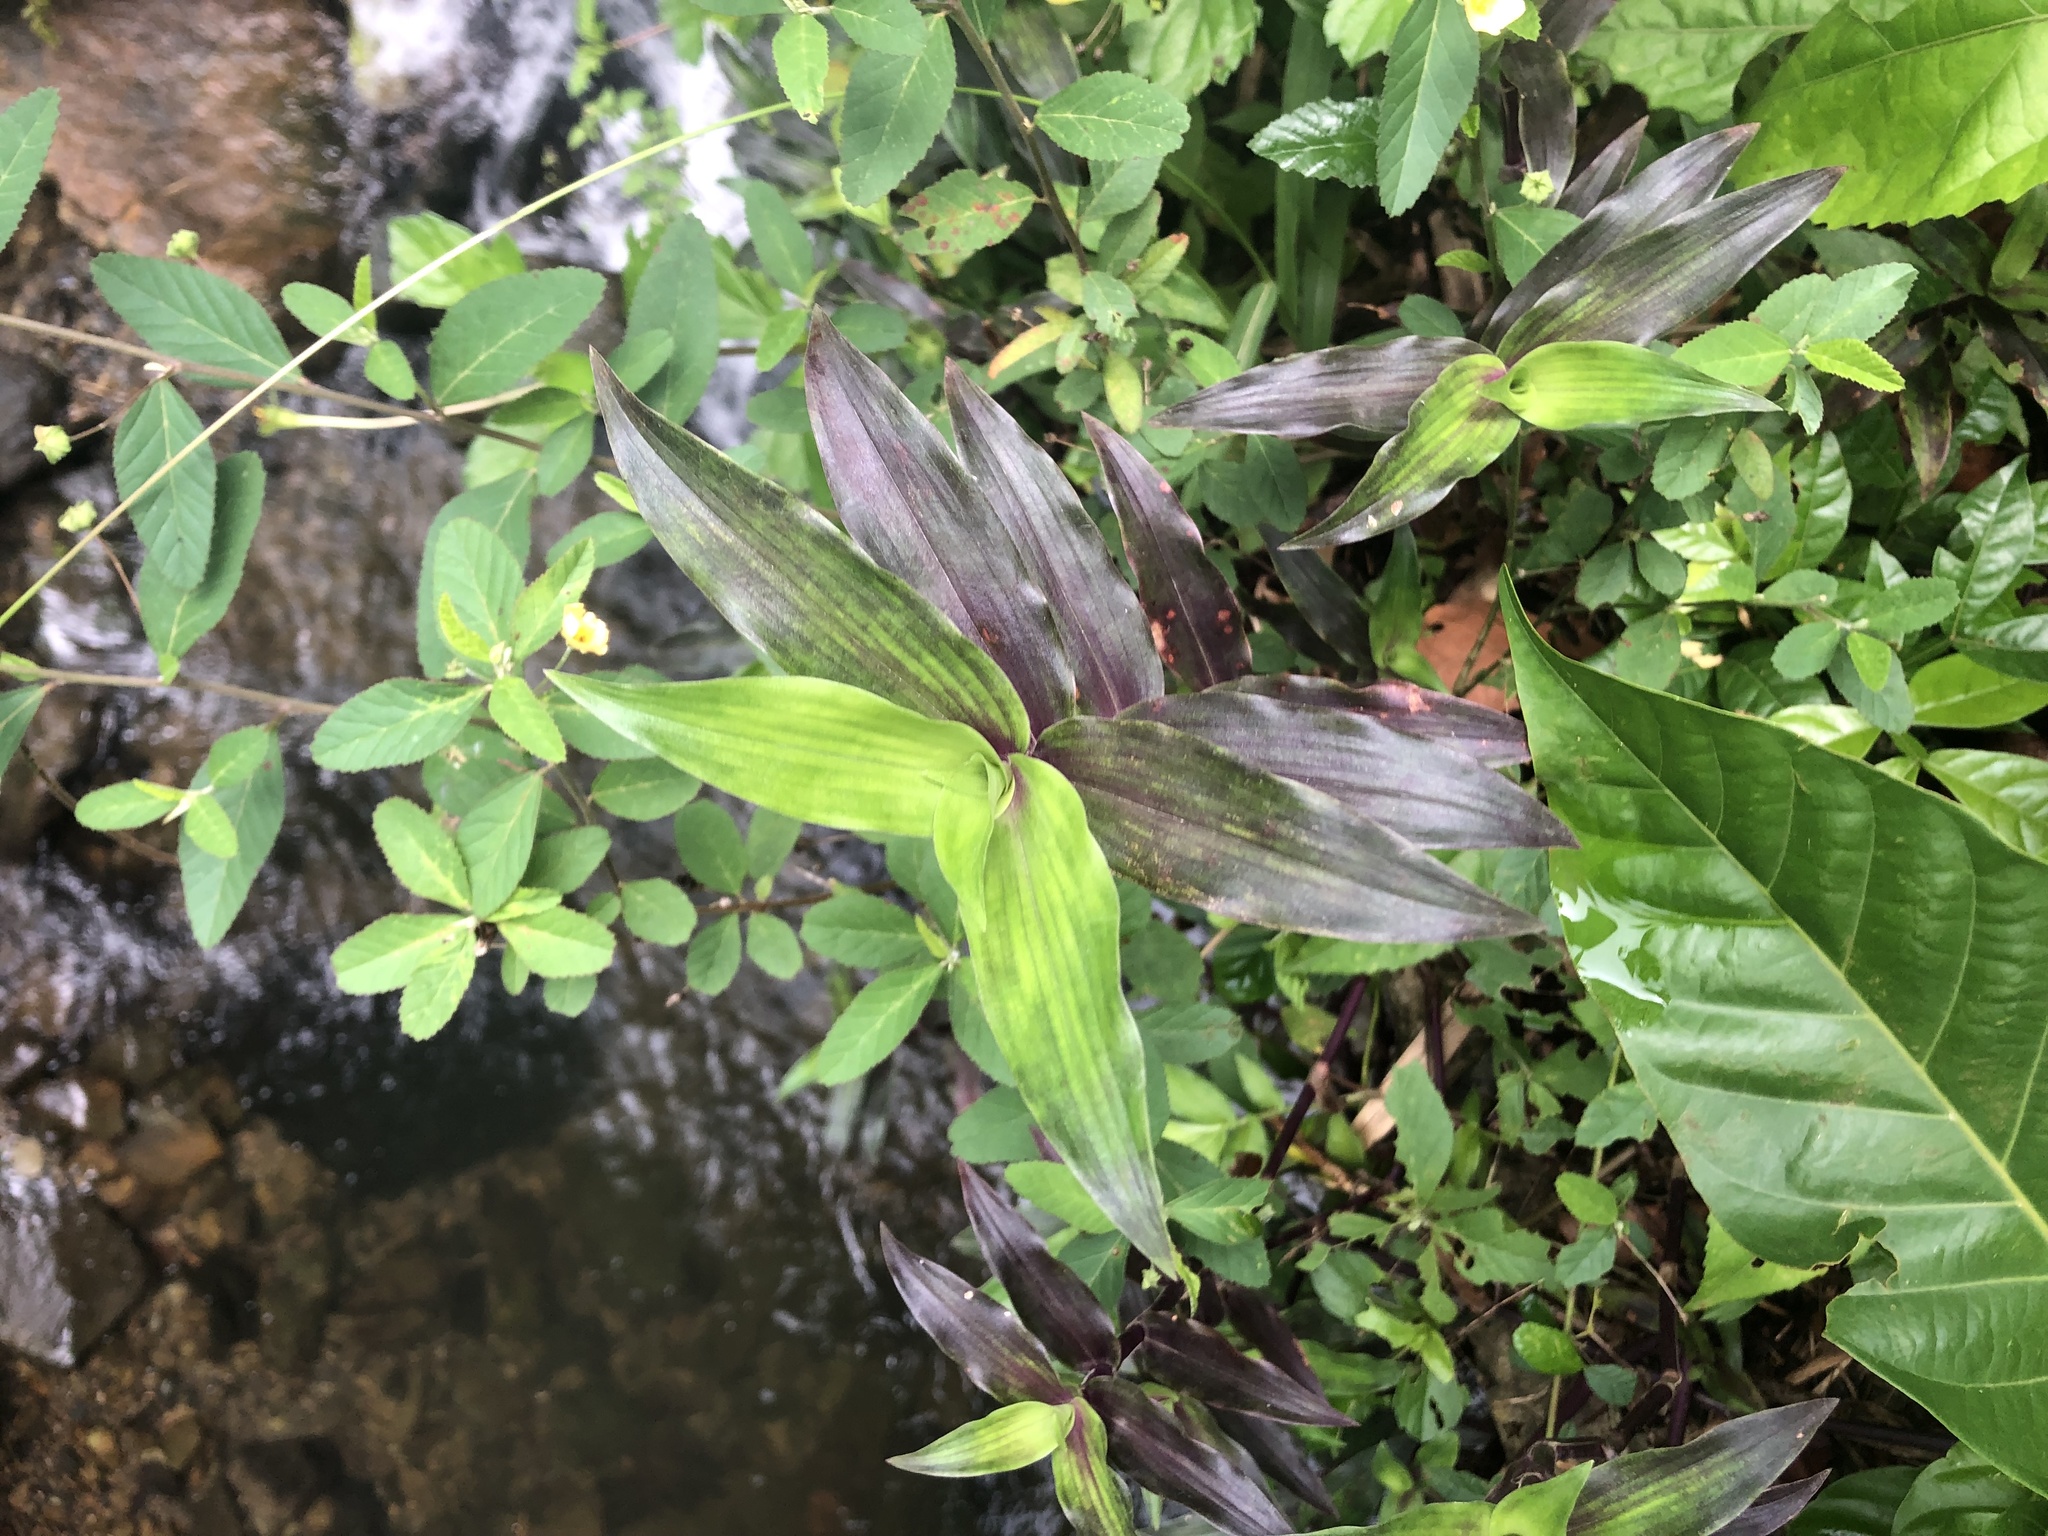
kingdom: Plantae
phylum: Tracheophyta
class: Liliopsida
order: Commelinales
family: Commelinaceae
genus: Callisia
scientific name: Callisia serrulata
